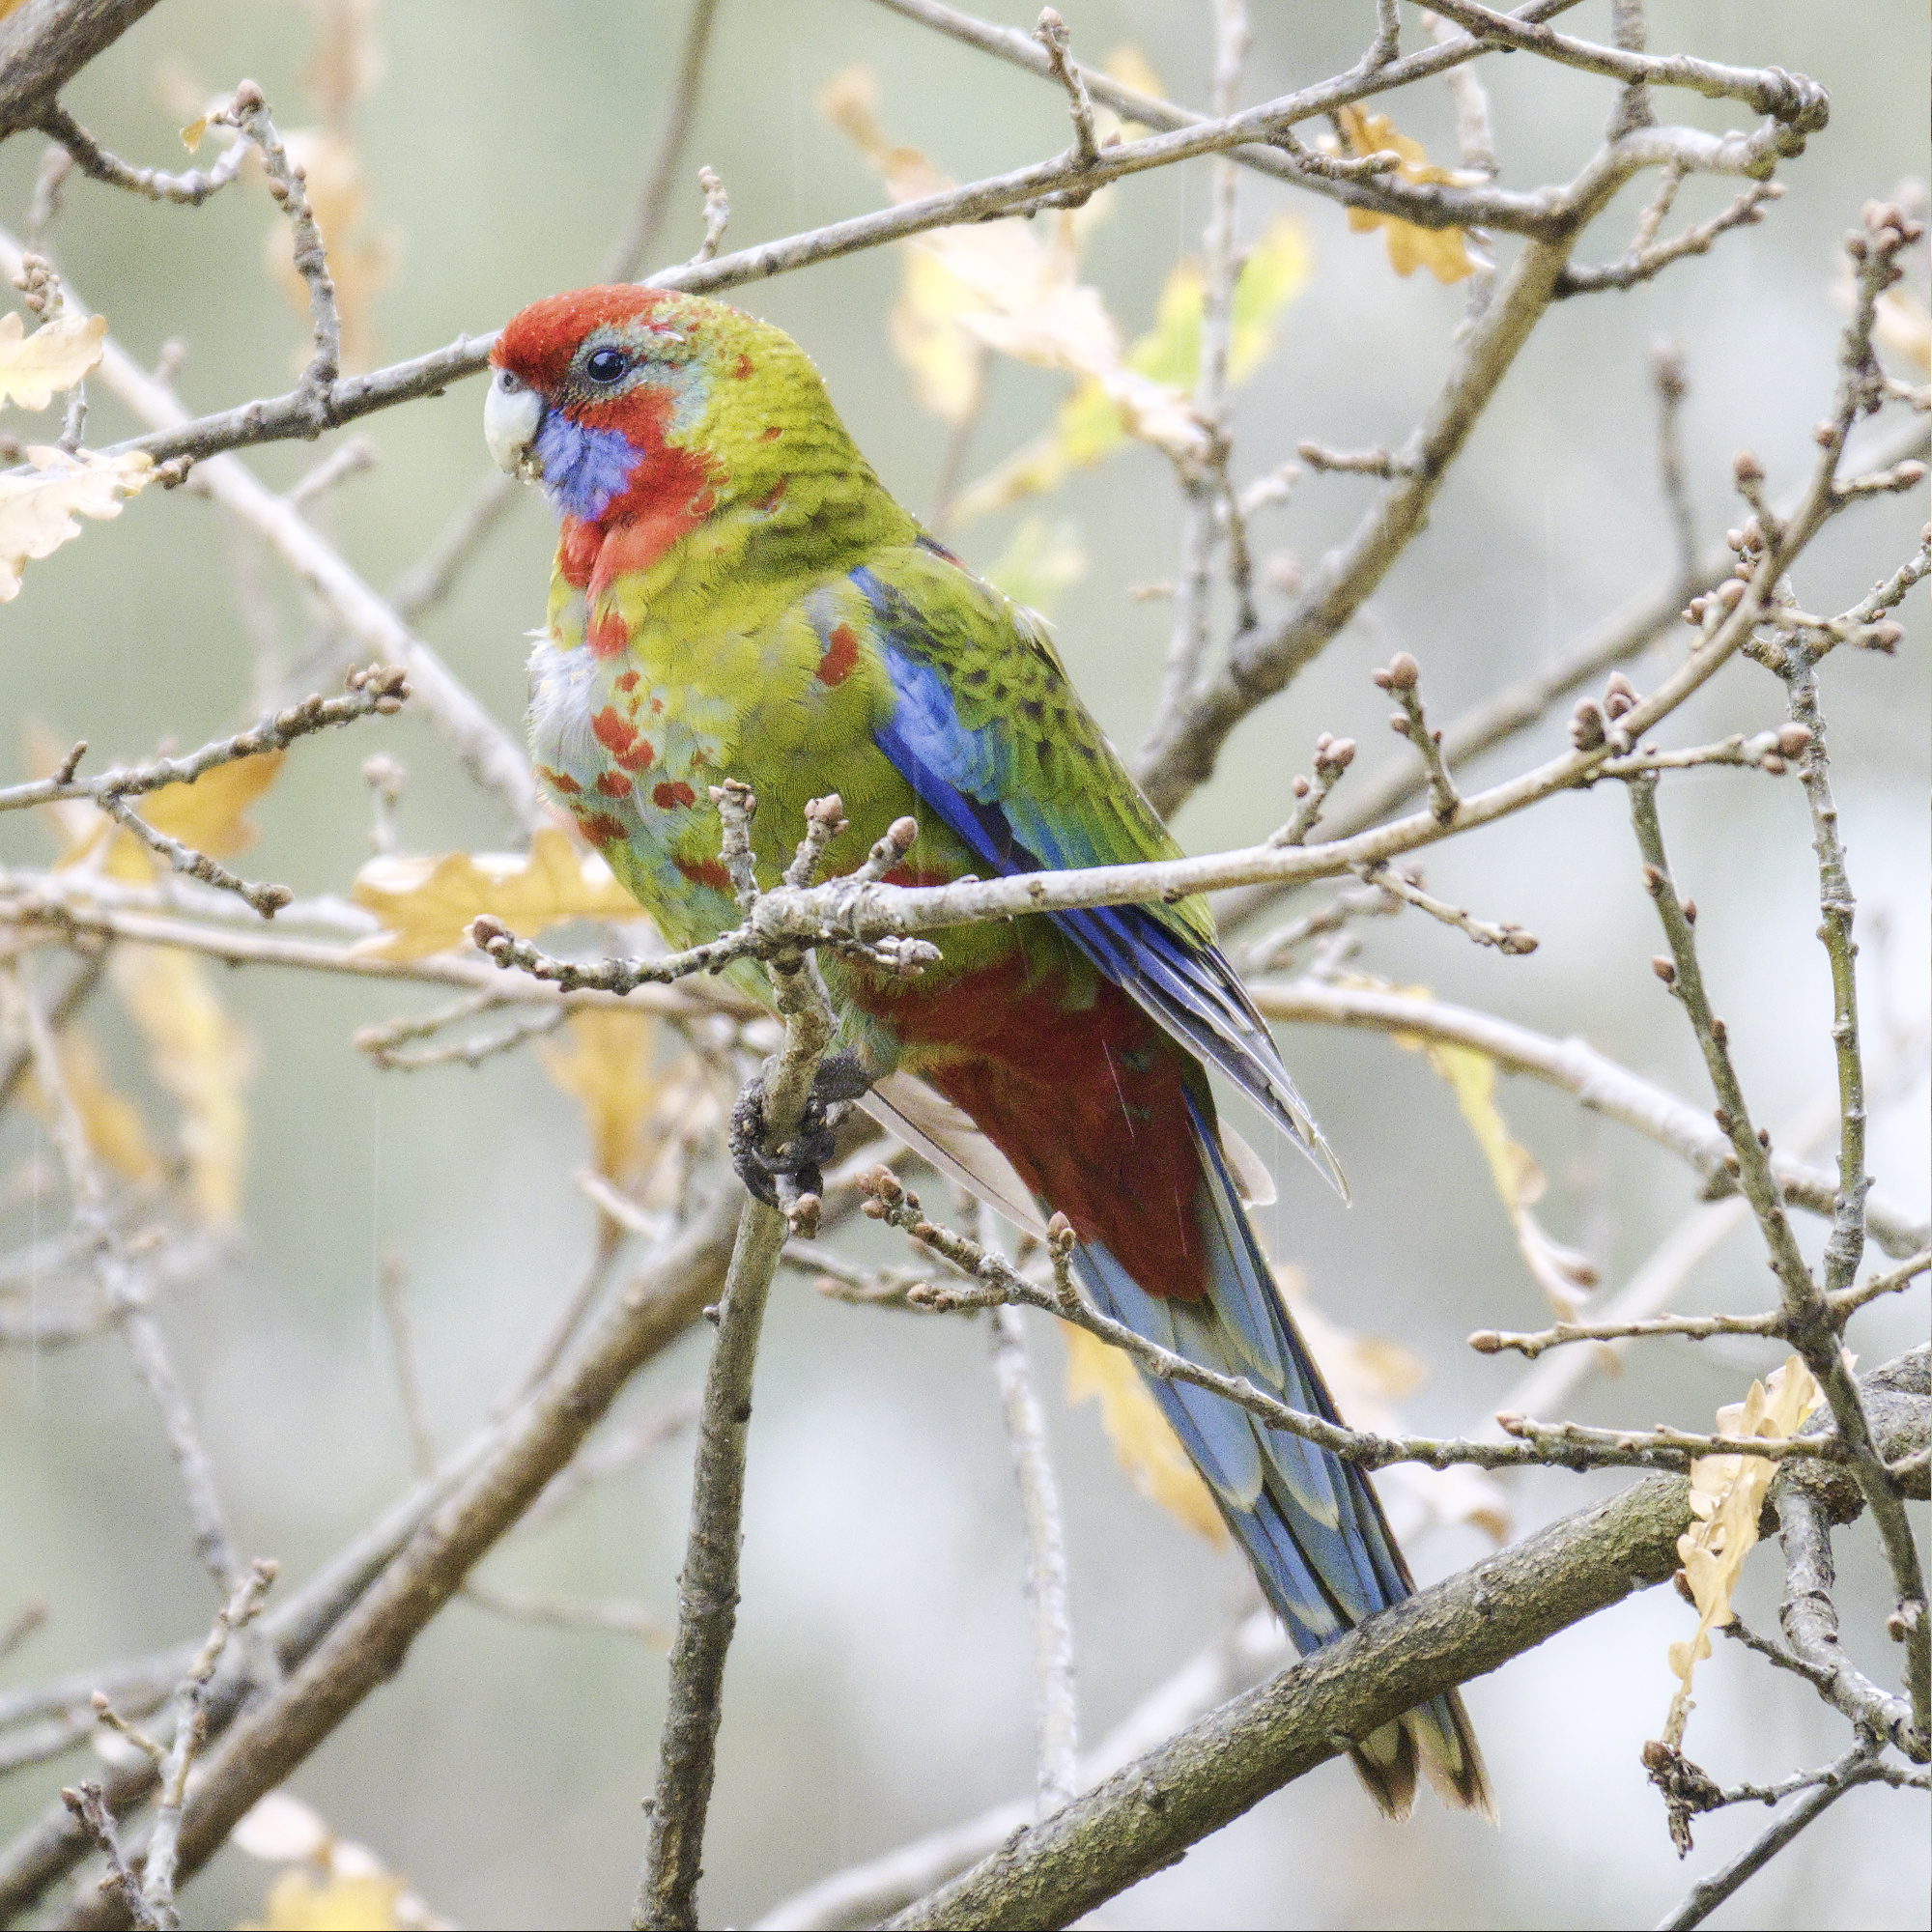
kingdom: Animalia
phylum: Chordata
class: Aves
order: Psittaciformes
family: Psittacidae
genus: Platycercus
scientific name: Platycercus elegans
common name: Crimson rosella
